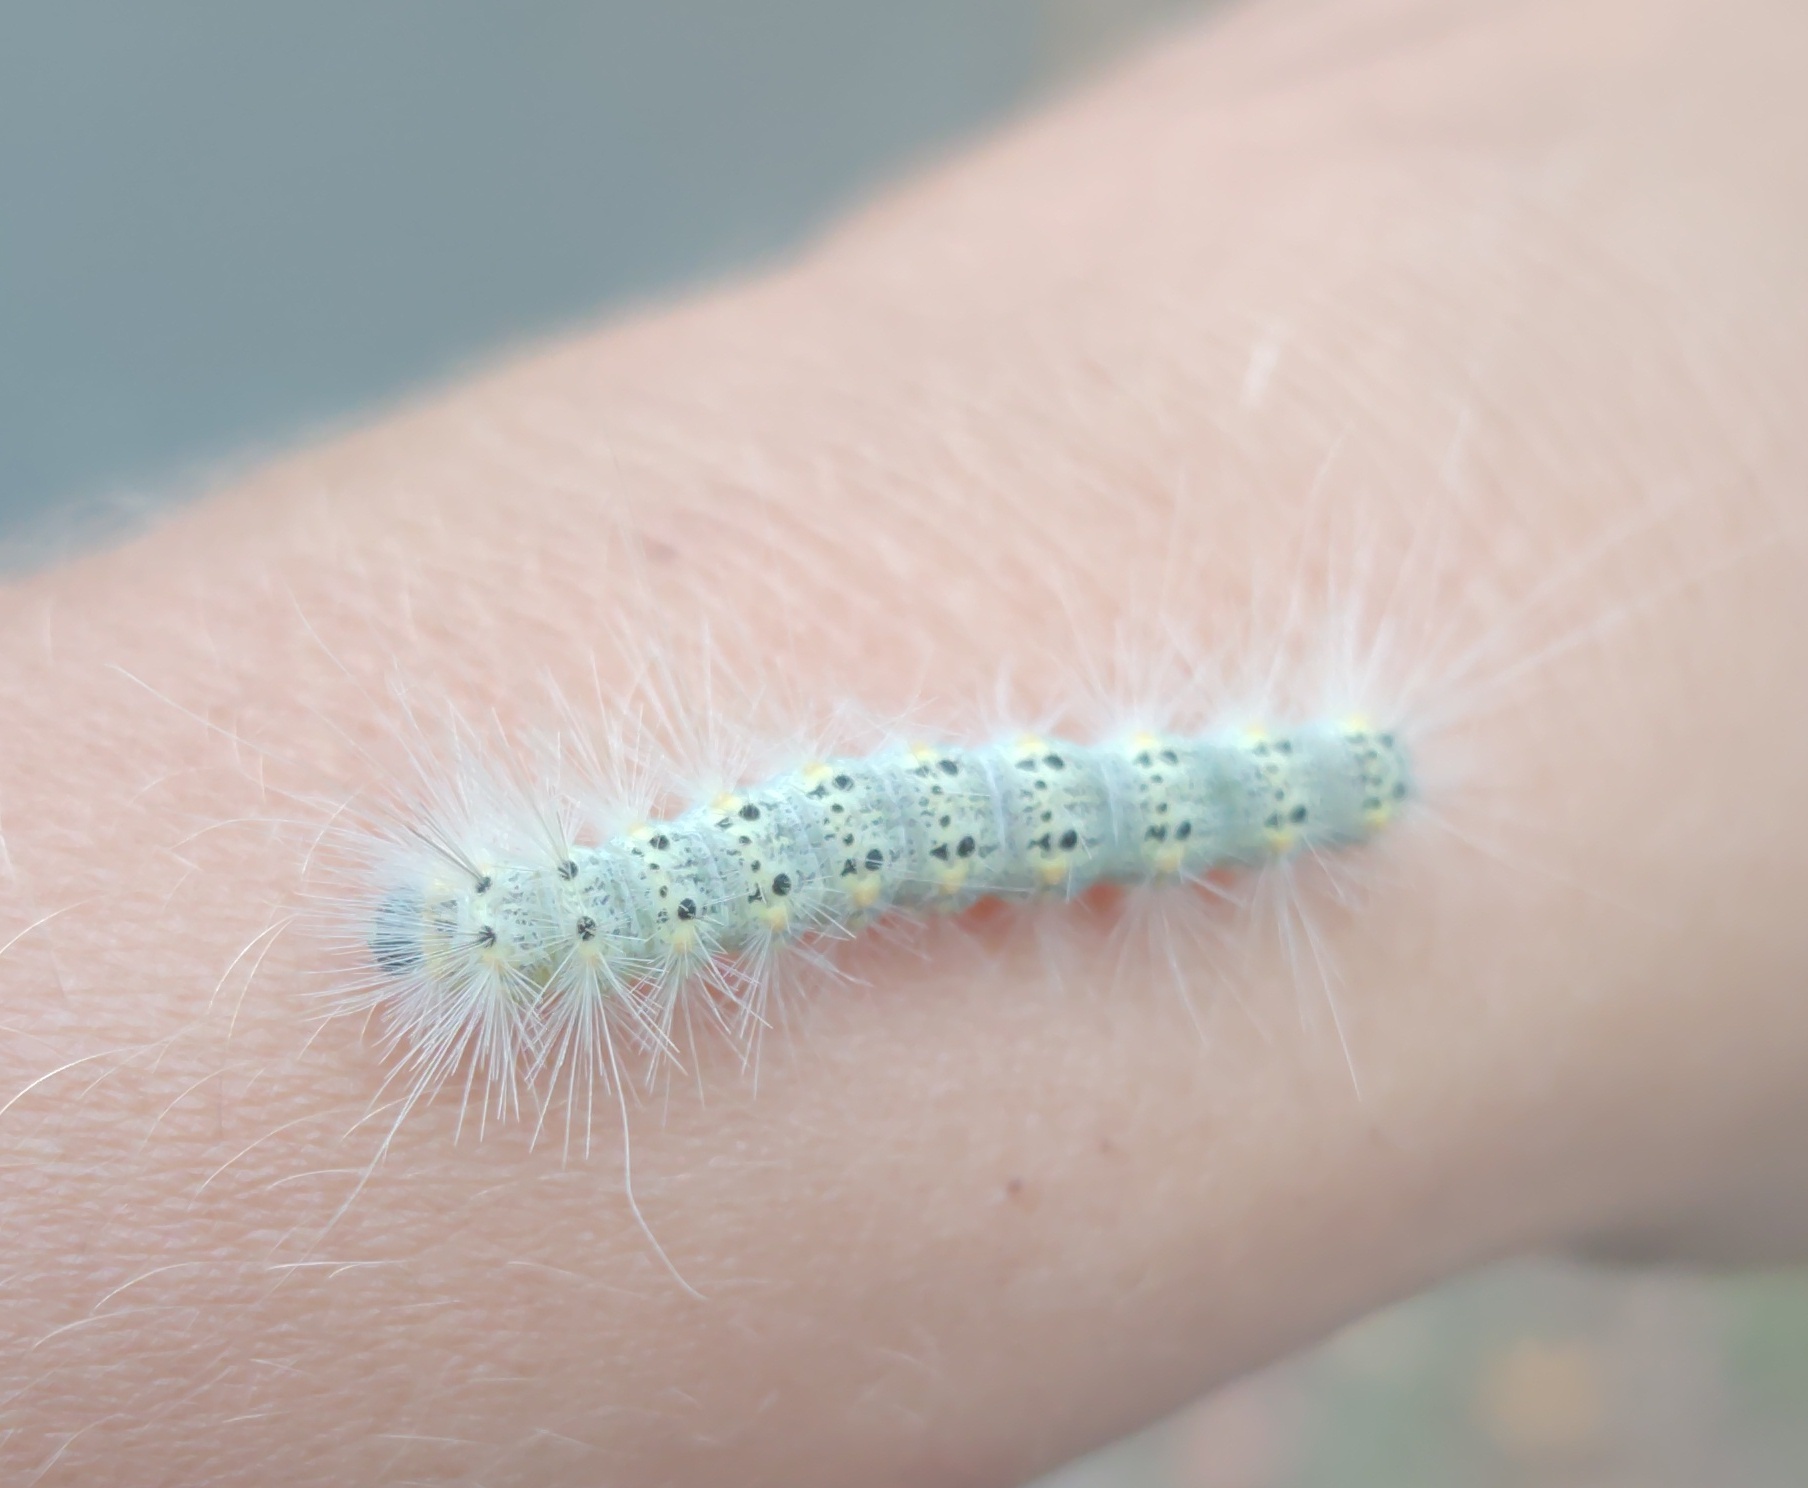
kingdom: Animalia
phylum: Arthropoda
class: Insecta
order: Lepidoptera
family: Erebidae
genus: Hyphantria
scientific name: Hyphantria cunea
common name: American white moth
